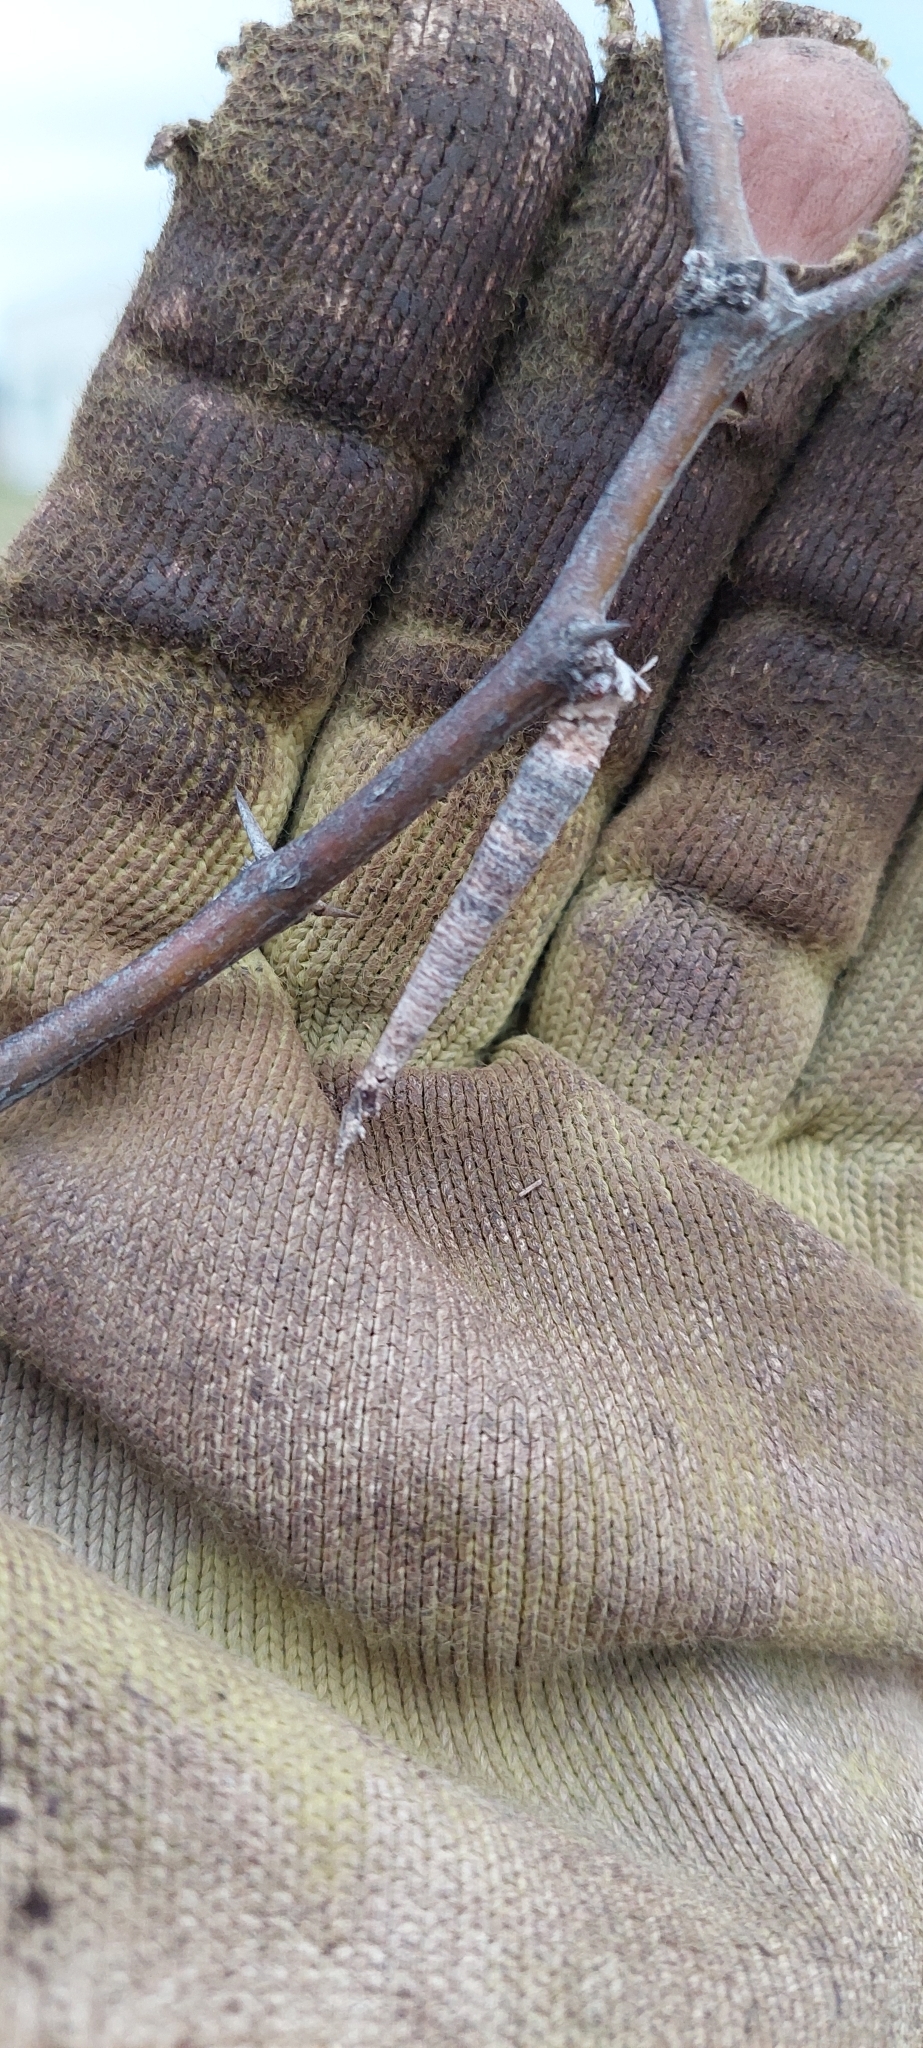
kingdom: Animalia
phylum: Arthropoda
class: Insecta
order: Lepidoptera
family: Psychidae
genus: Oiketicus
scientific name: Oiketicus geyeri
